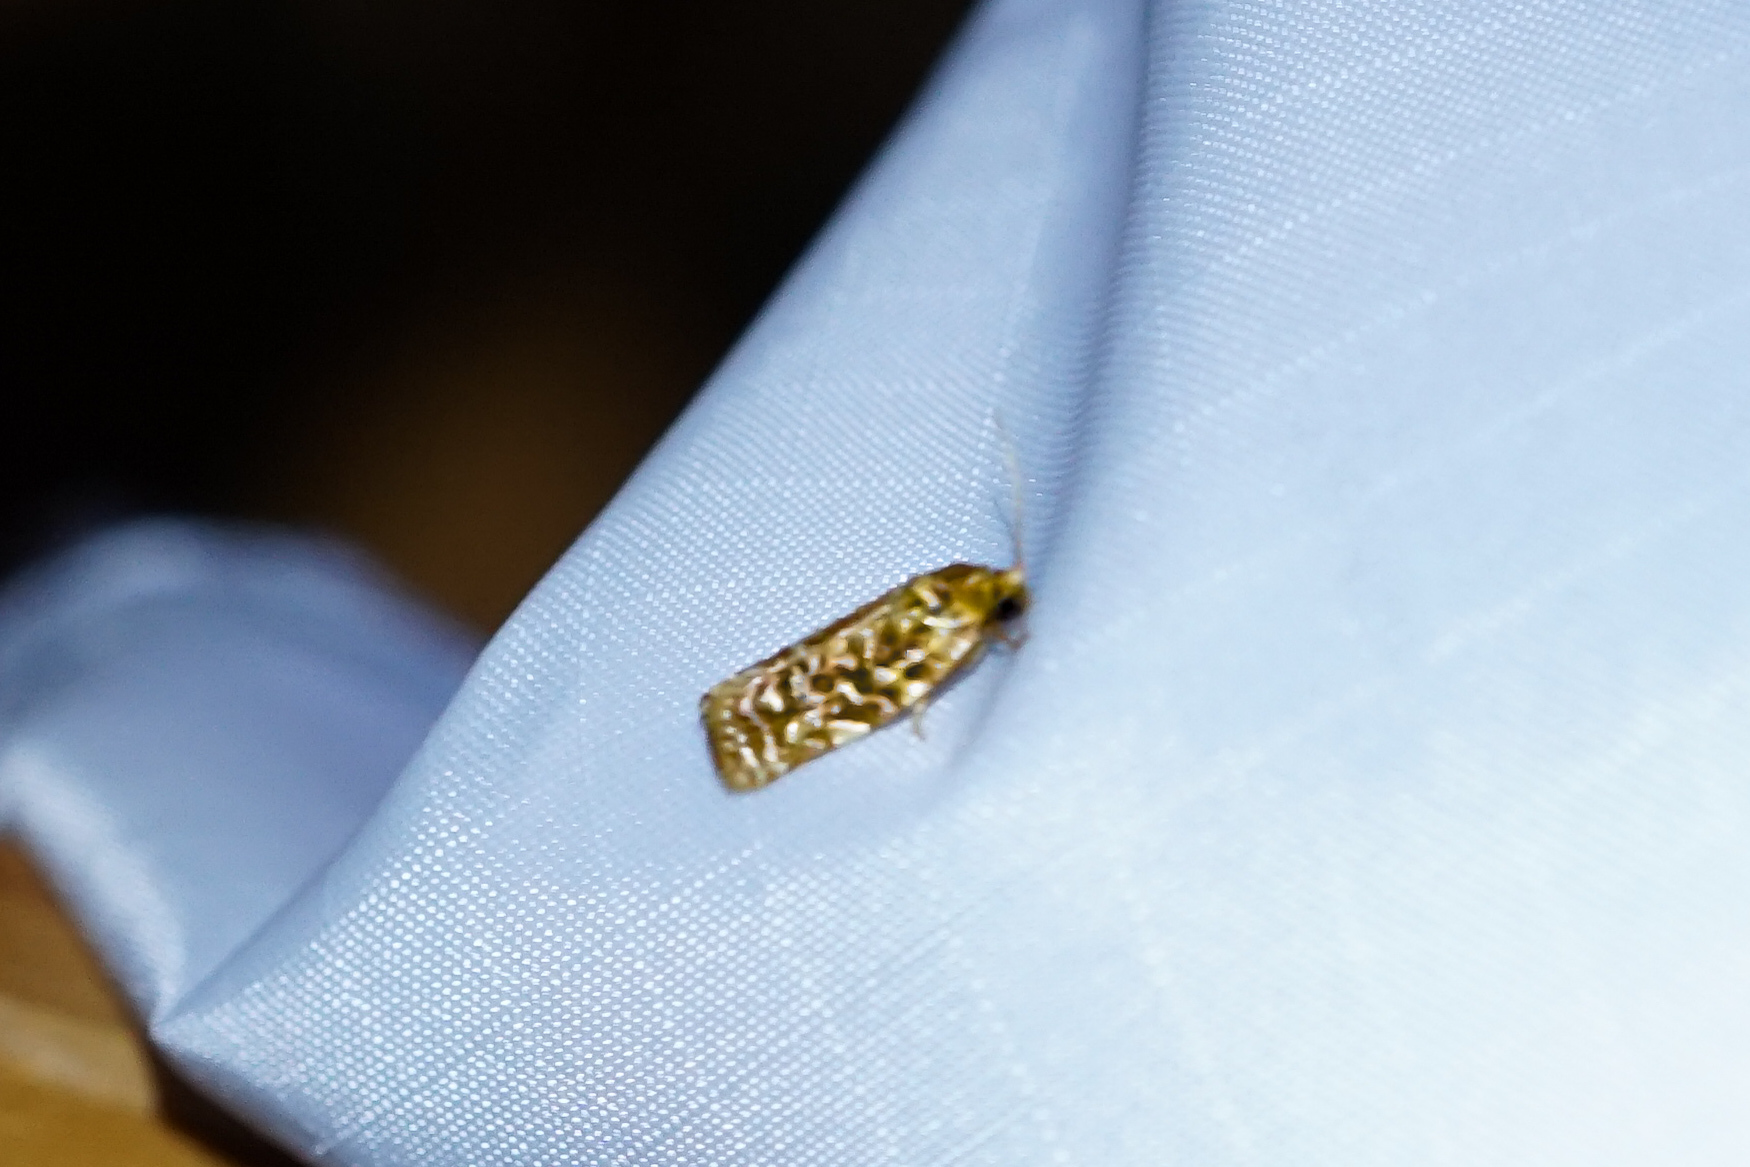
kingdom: Animalia
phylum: Arthropoda
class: Insecta
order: Lepidoptera
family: Tortricidae
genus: Choristoneura
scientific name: Choristoneura houstonana
